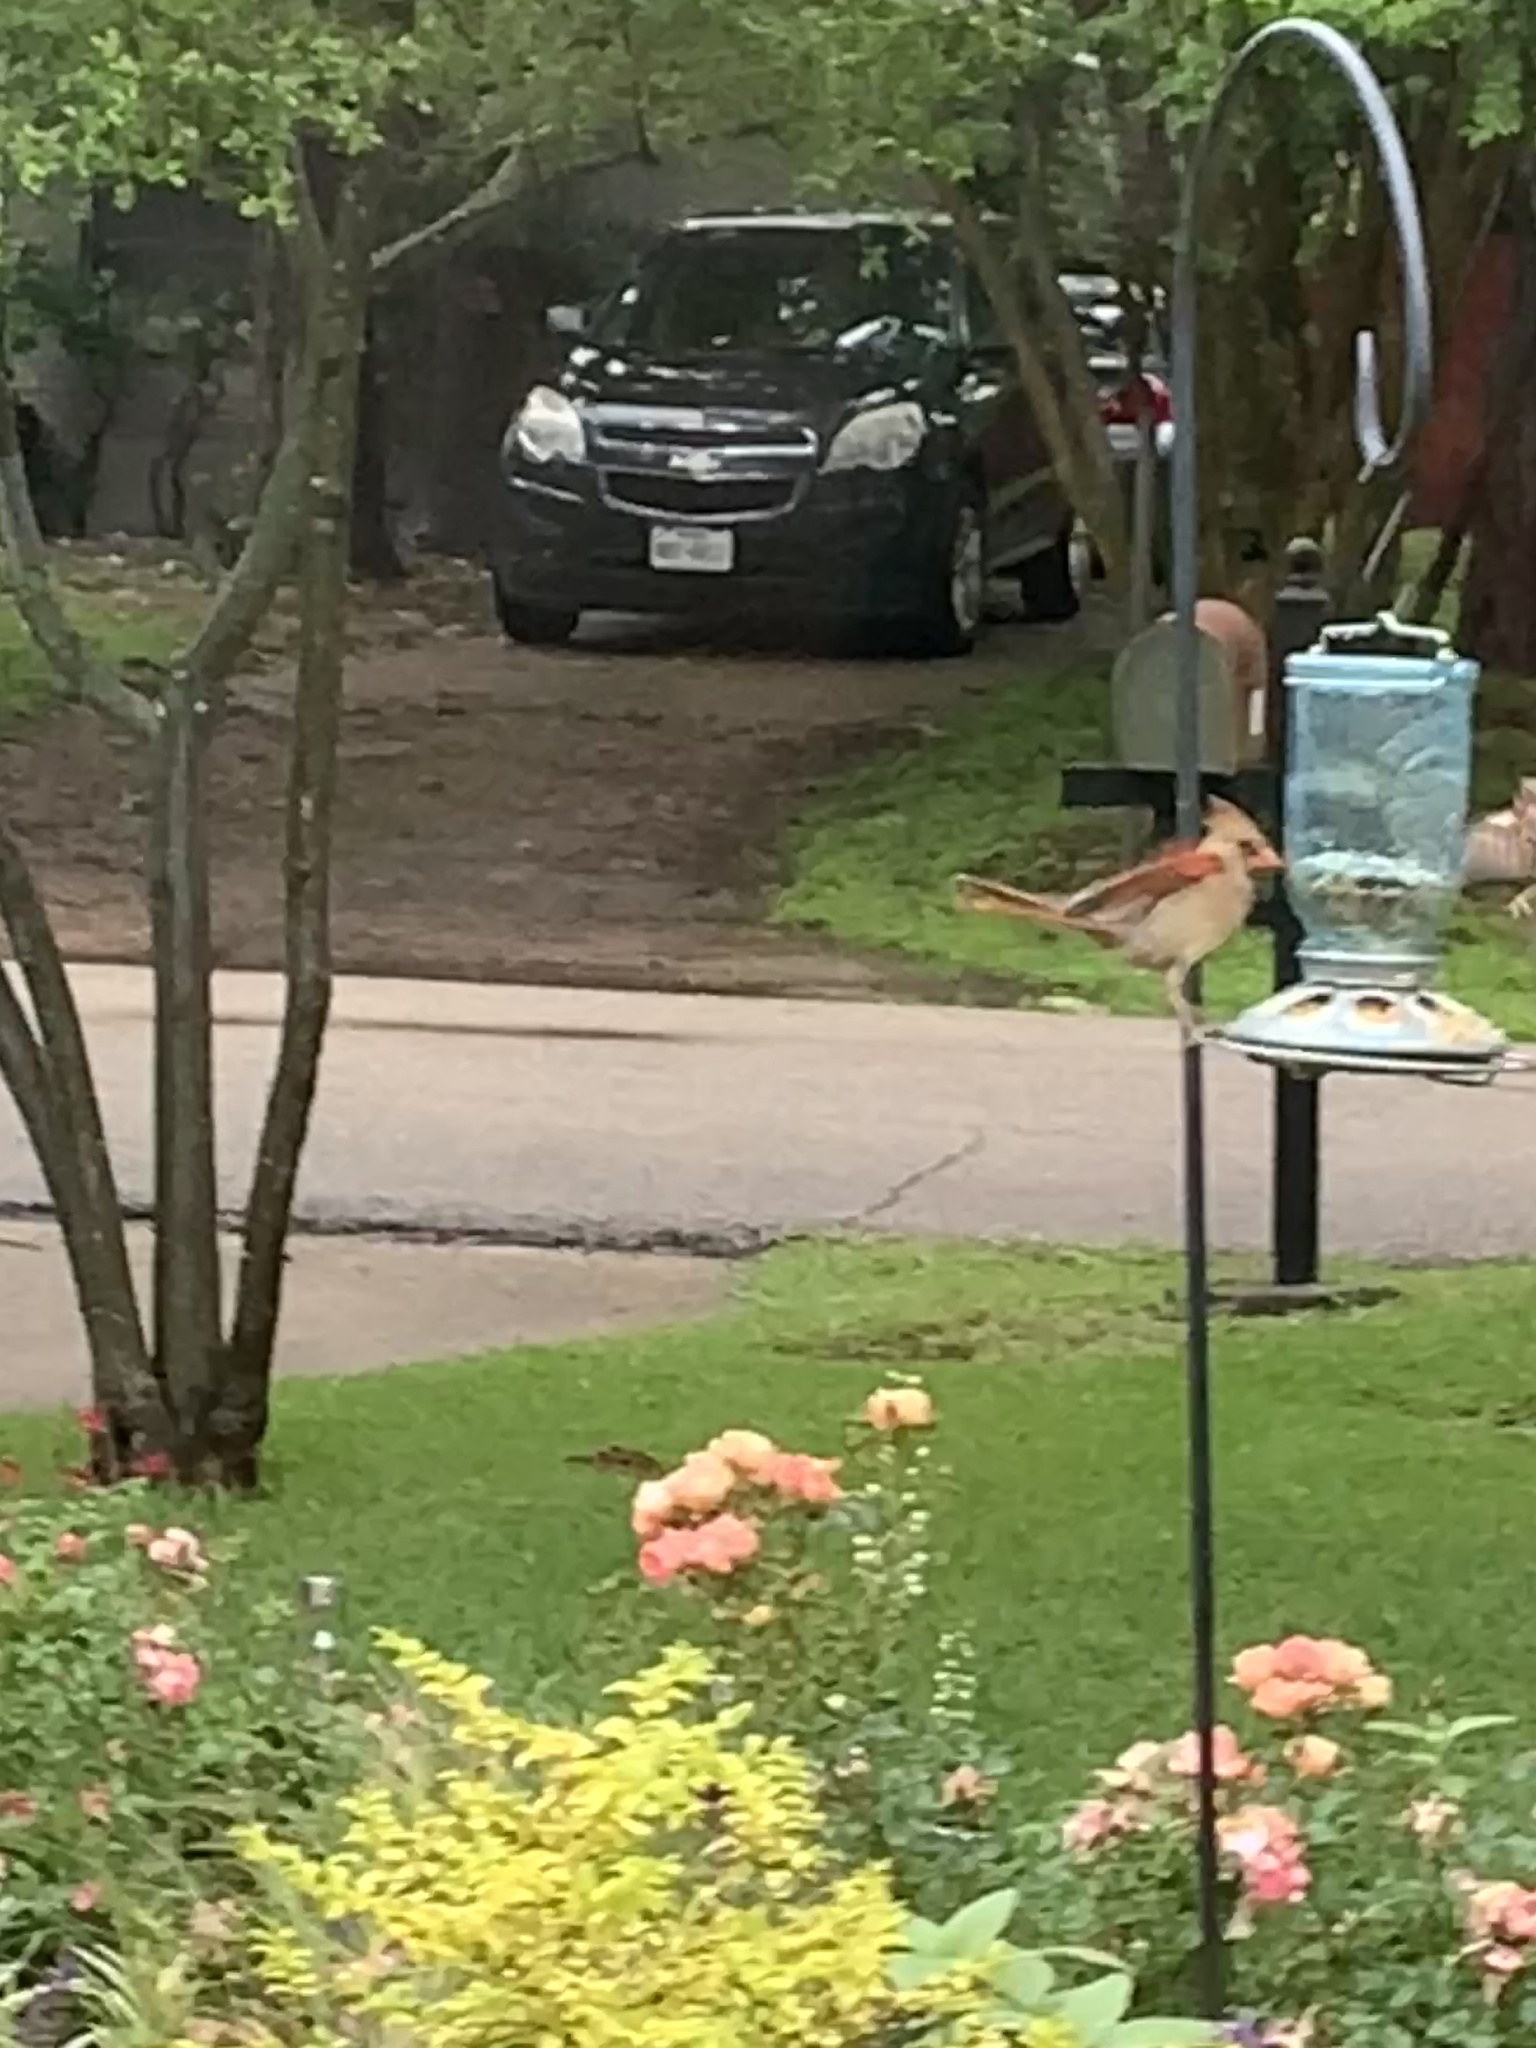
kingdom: Animalia
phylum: Chordata
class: Aves
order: Passeriformes
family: Cardinalidae
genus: Cardinalis
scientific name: Cardinalis cardinalis
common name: Northern cardinal
